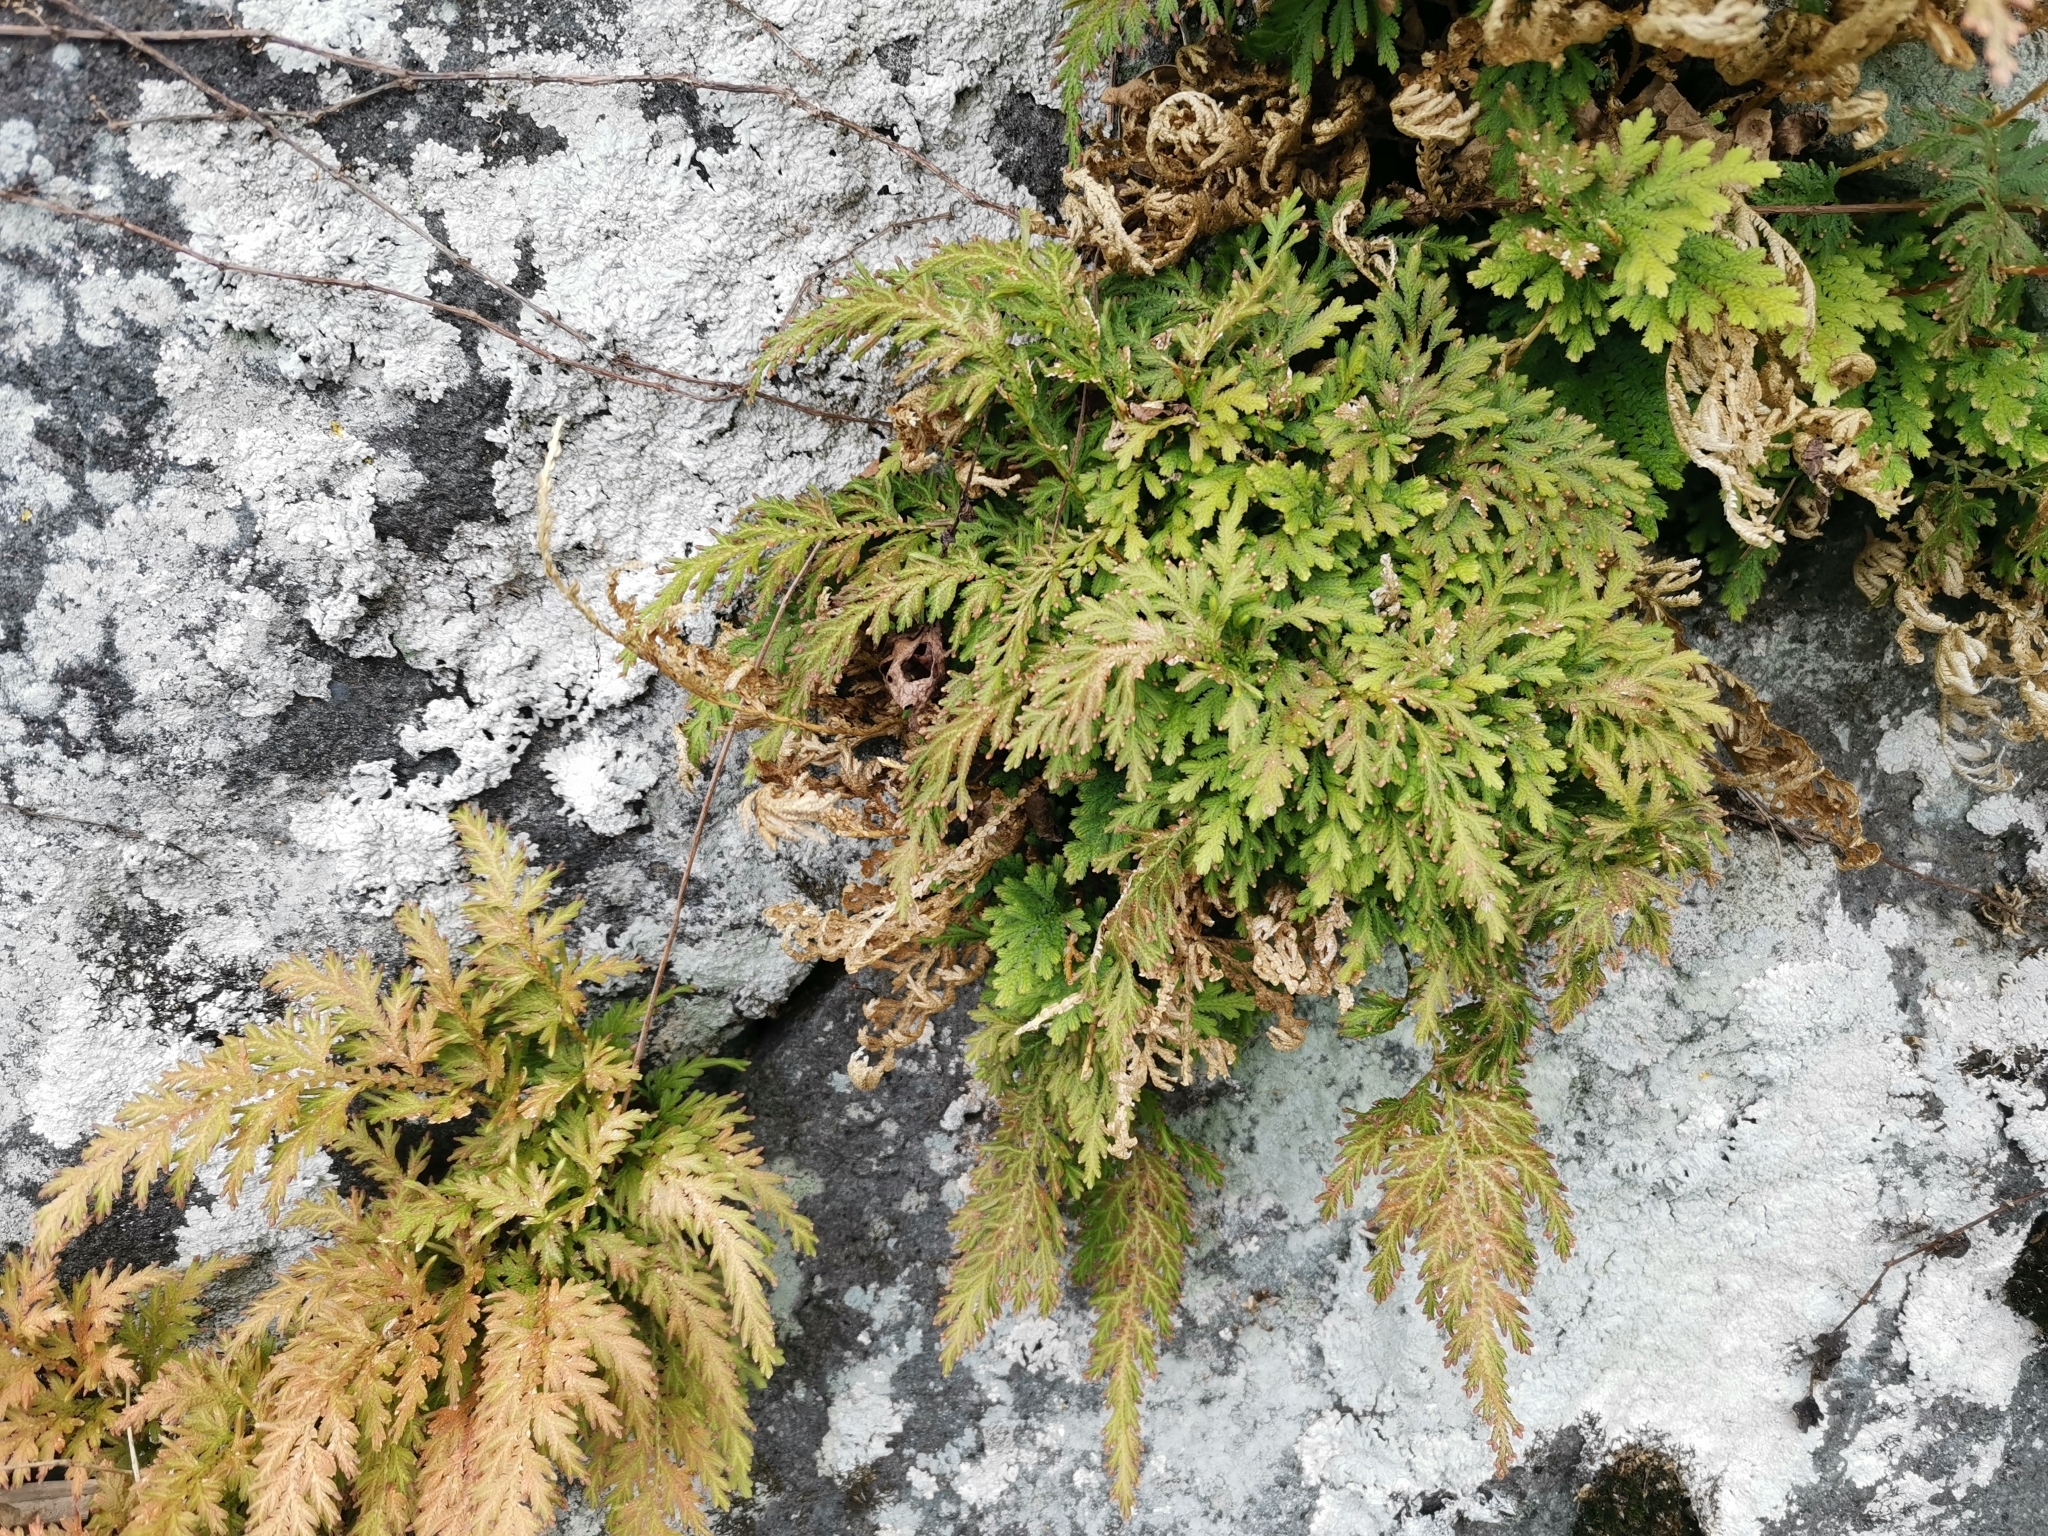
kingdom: Plantae
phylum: Tracheophyta
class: Lycopodiopsida
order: Selaginellales
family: Selaginellaceae
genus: Selaginella
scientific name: Selaginella moellendorffii
